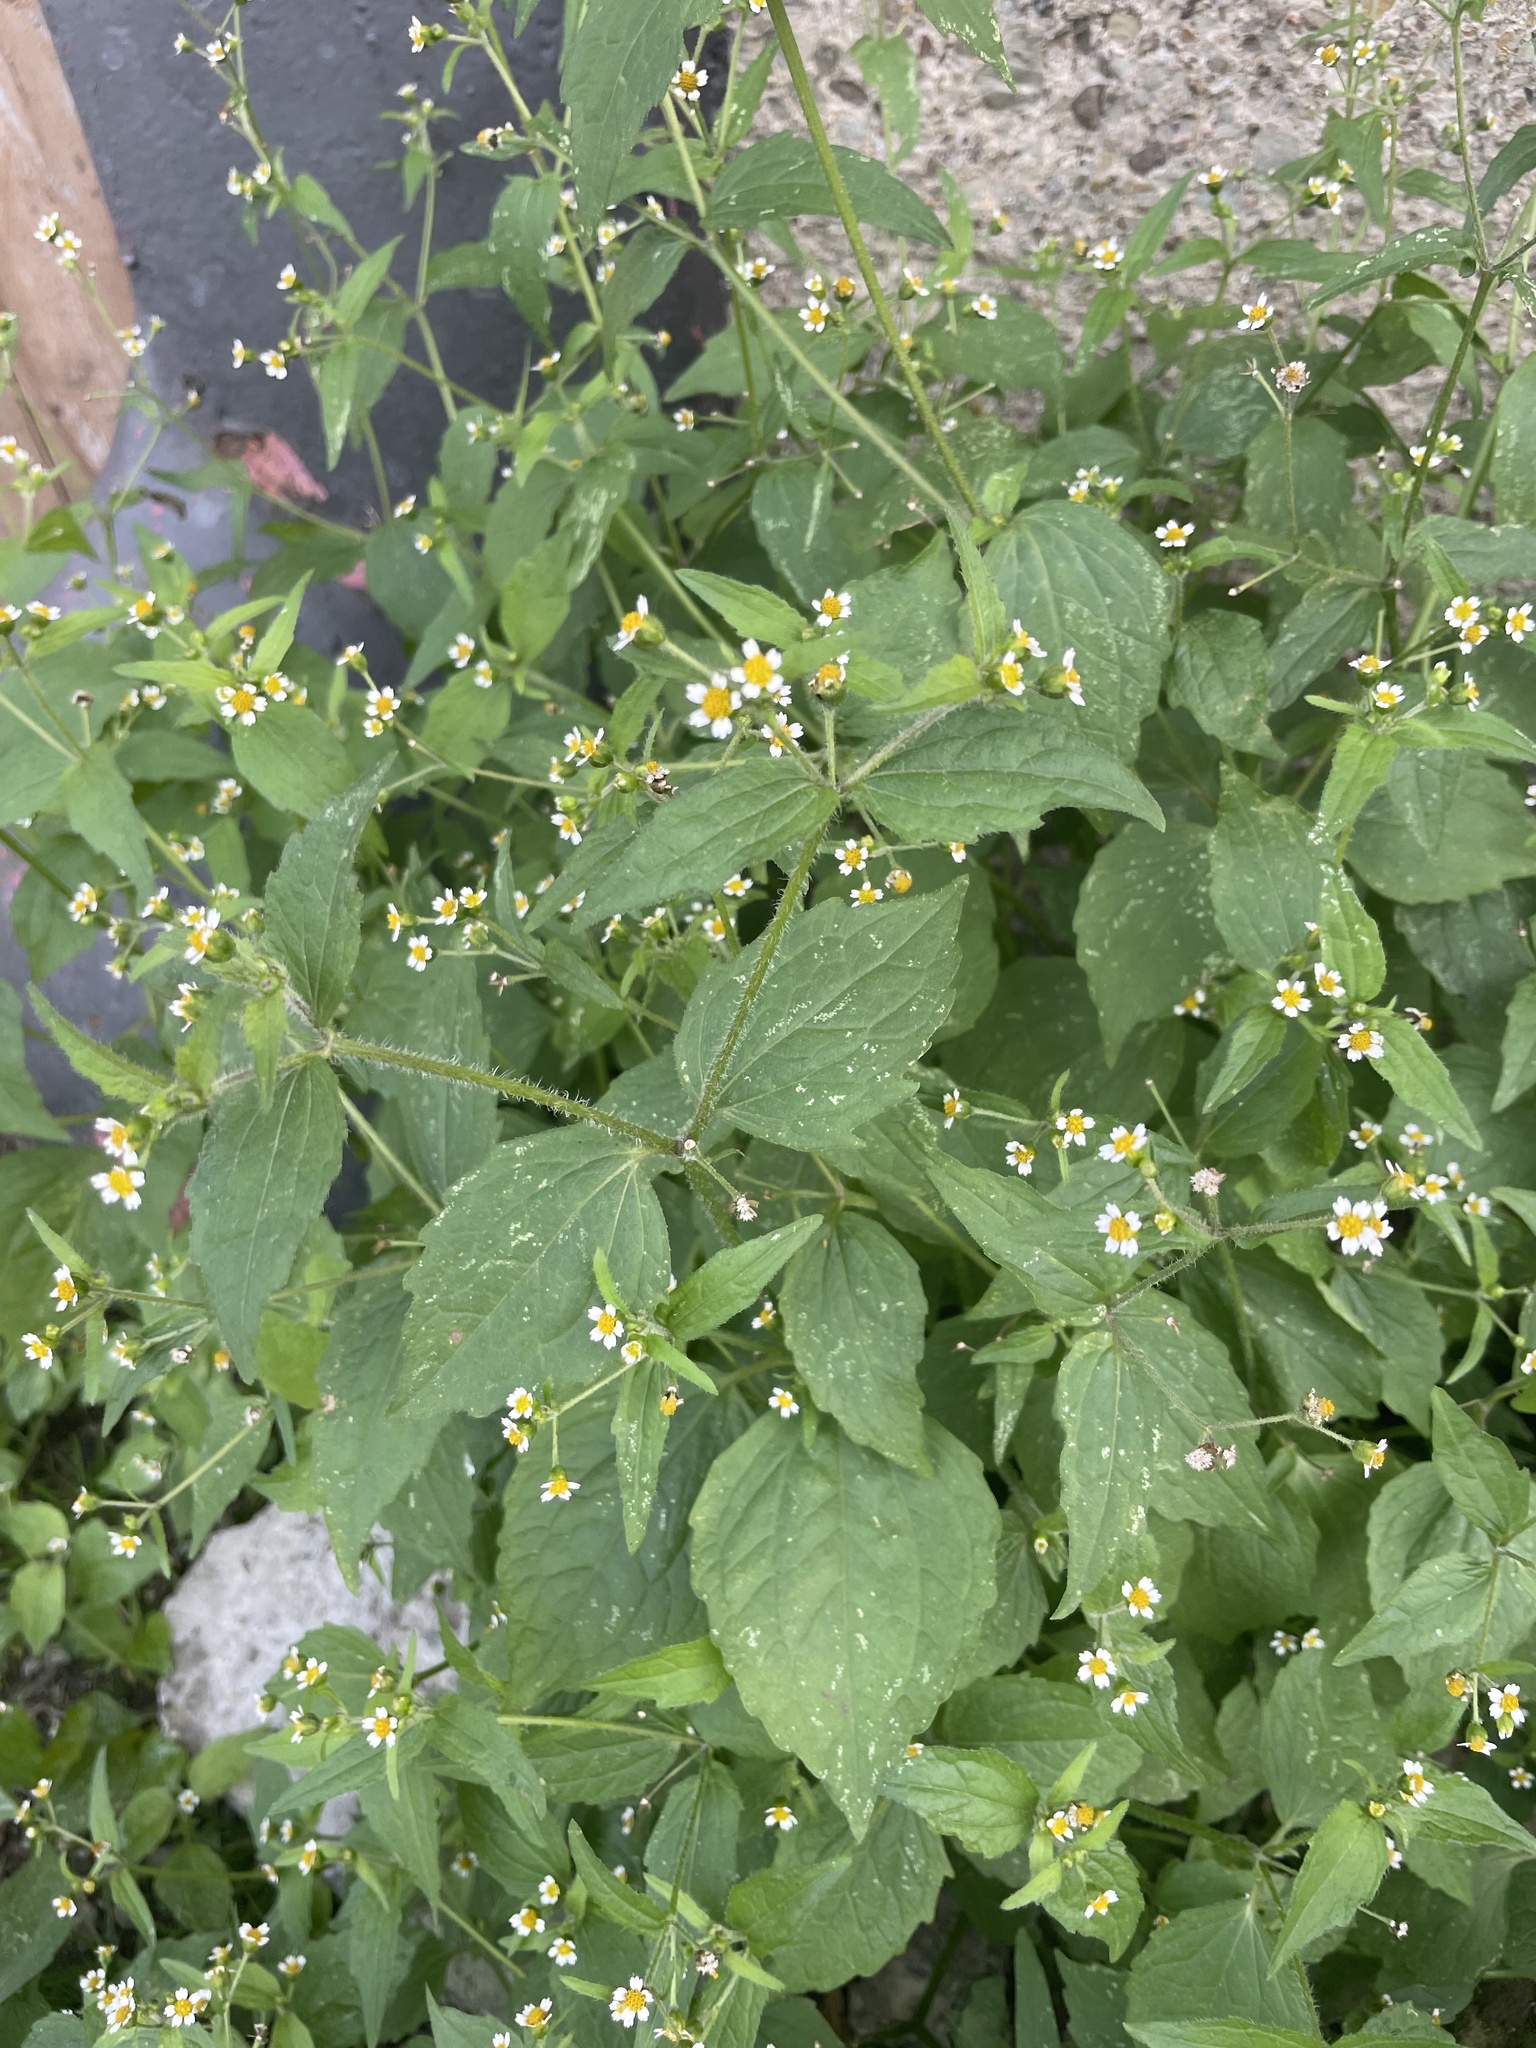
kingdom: Plantae
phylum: Tracheophyta
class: Magnoliopsida
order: Asterales
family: Asteraceae
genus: Galinsoga
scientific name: Galinsoga quadriradiata
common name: Shaggy soldier
